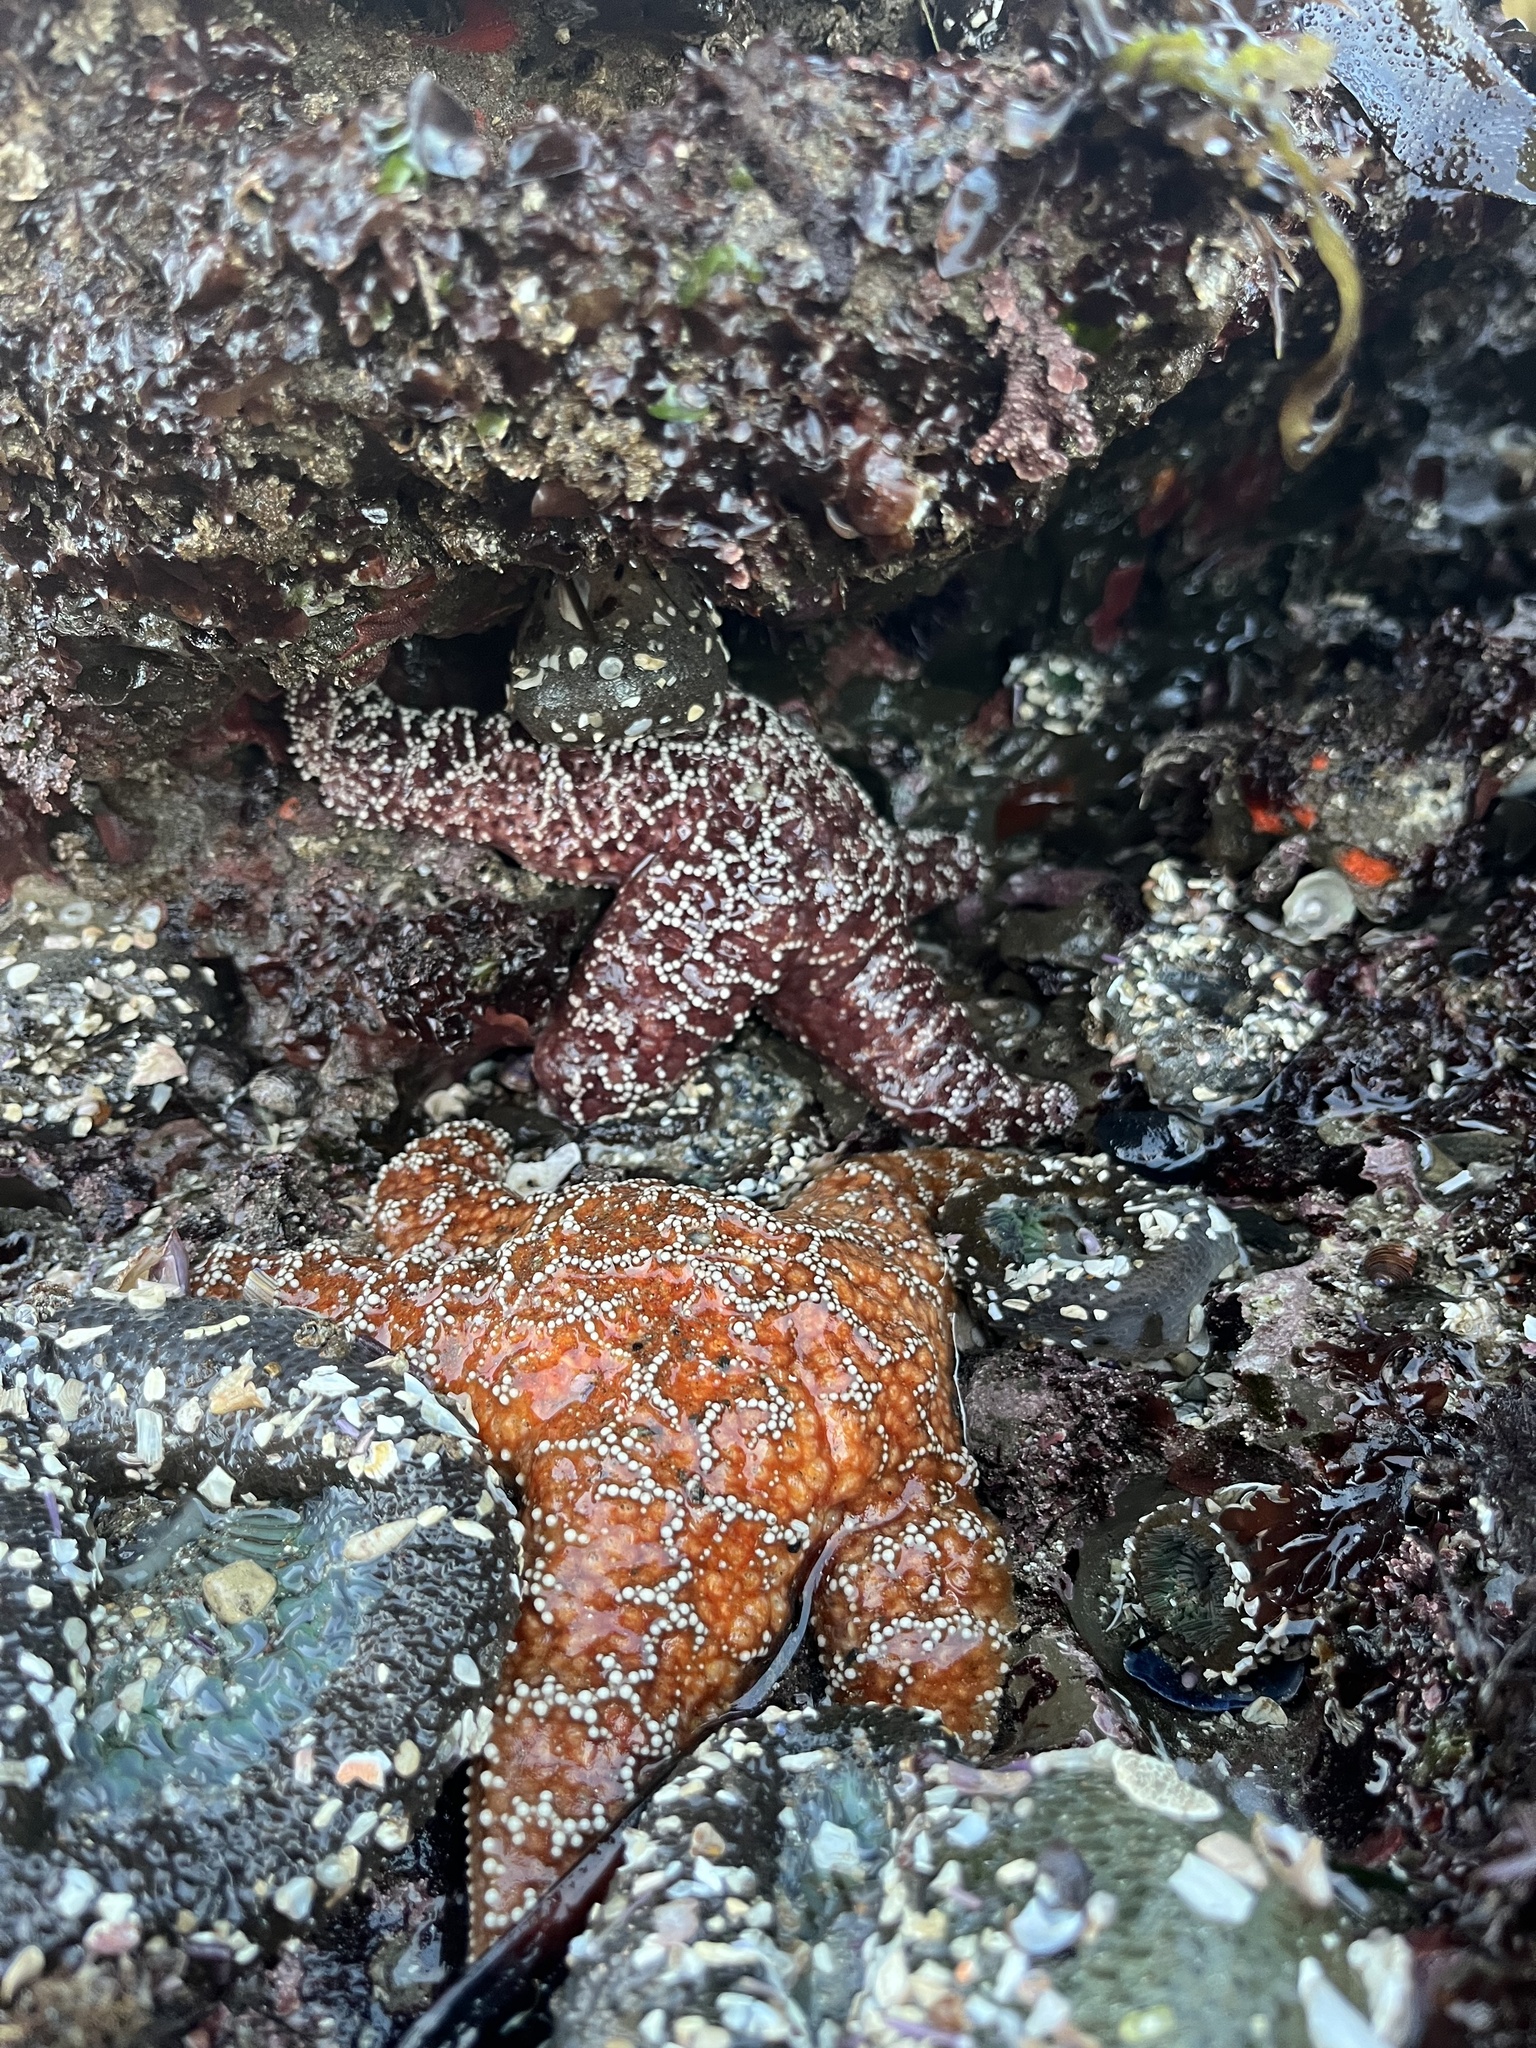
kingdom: Animalia
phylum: Echinodermata
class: Asteroidea
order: Forcipulatida
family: Asteriidae
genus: Pisaster
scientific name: Pisaster ochraceus
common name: Ochre stars
